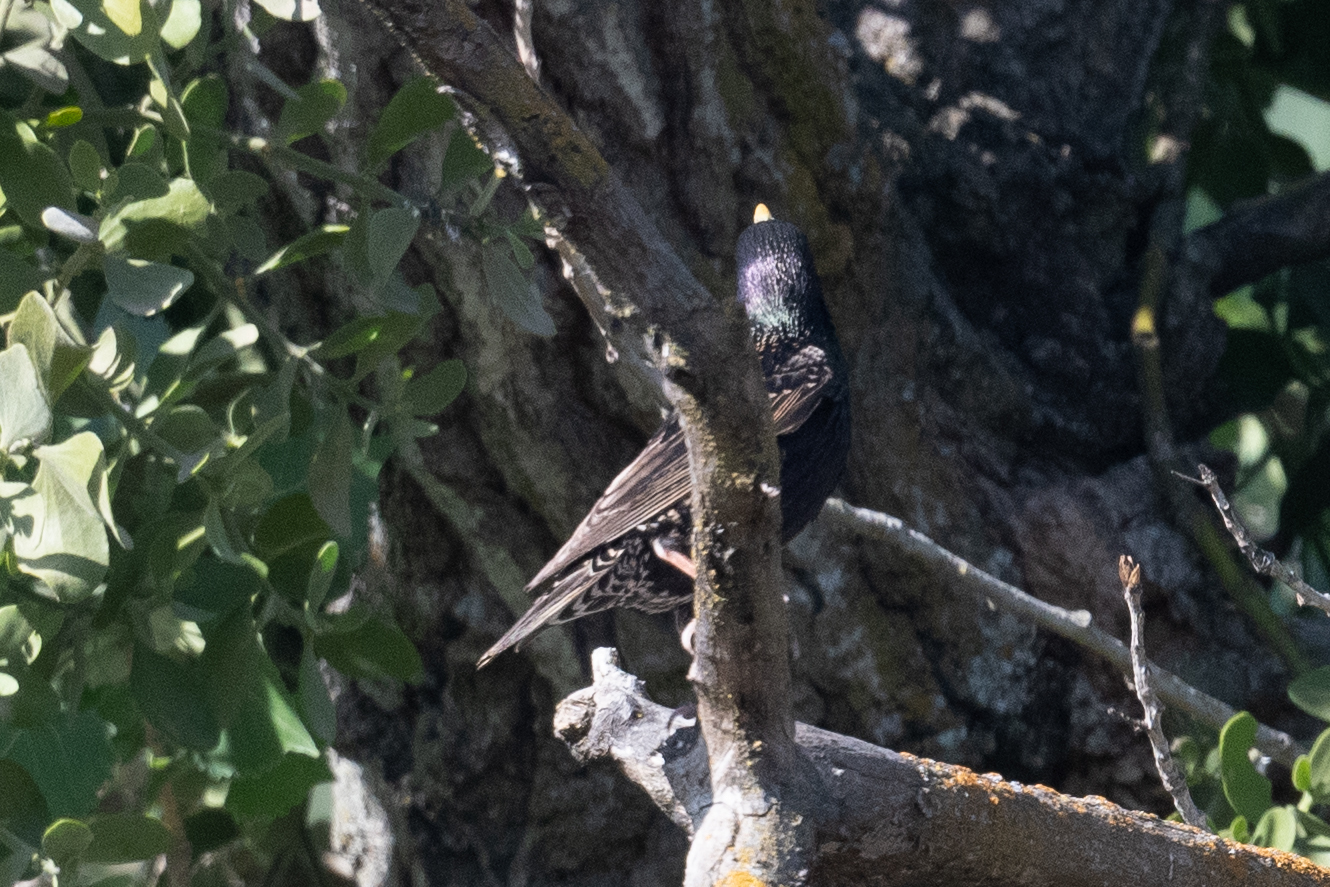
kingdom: Animalia
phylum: Chordata
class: Aves
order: Passeriformes
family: Sturnidae
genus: Sturnus
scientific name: Sturnus vulgaris
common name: Common starling
